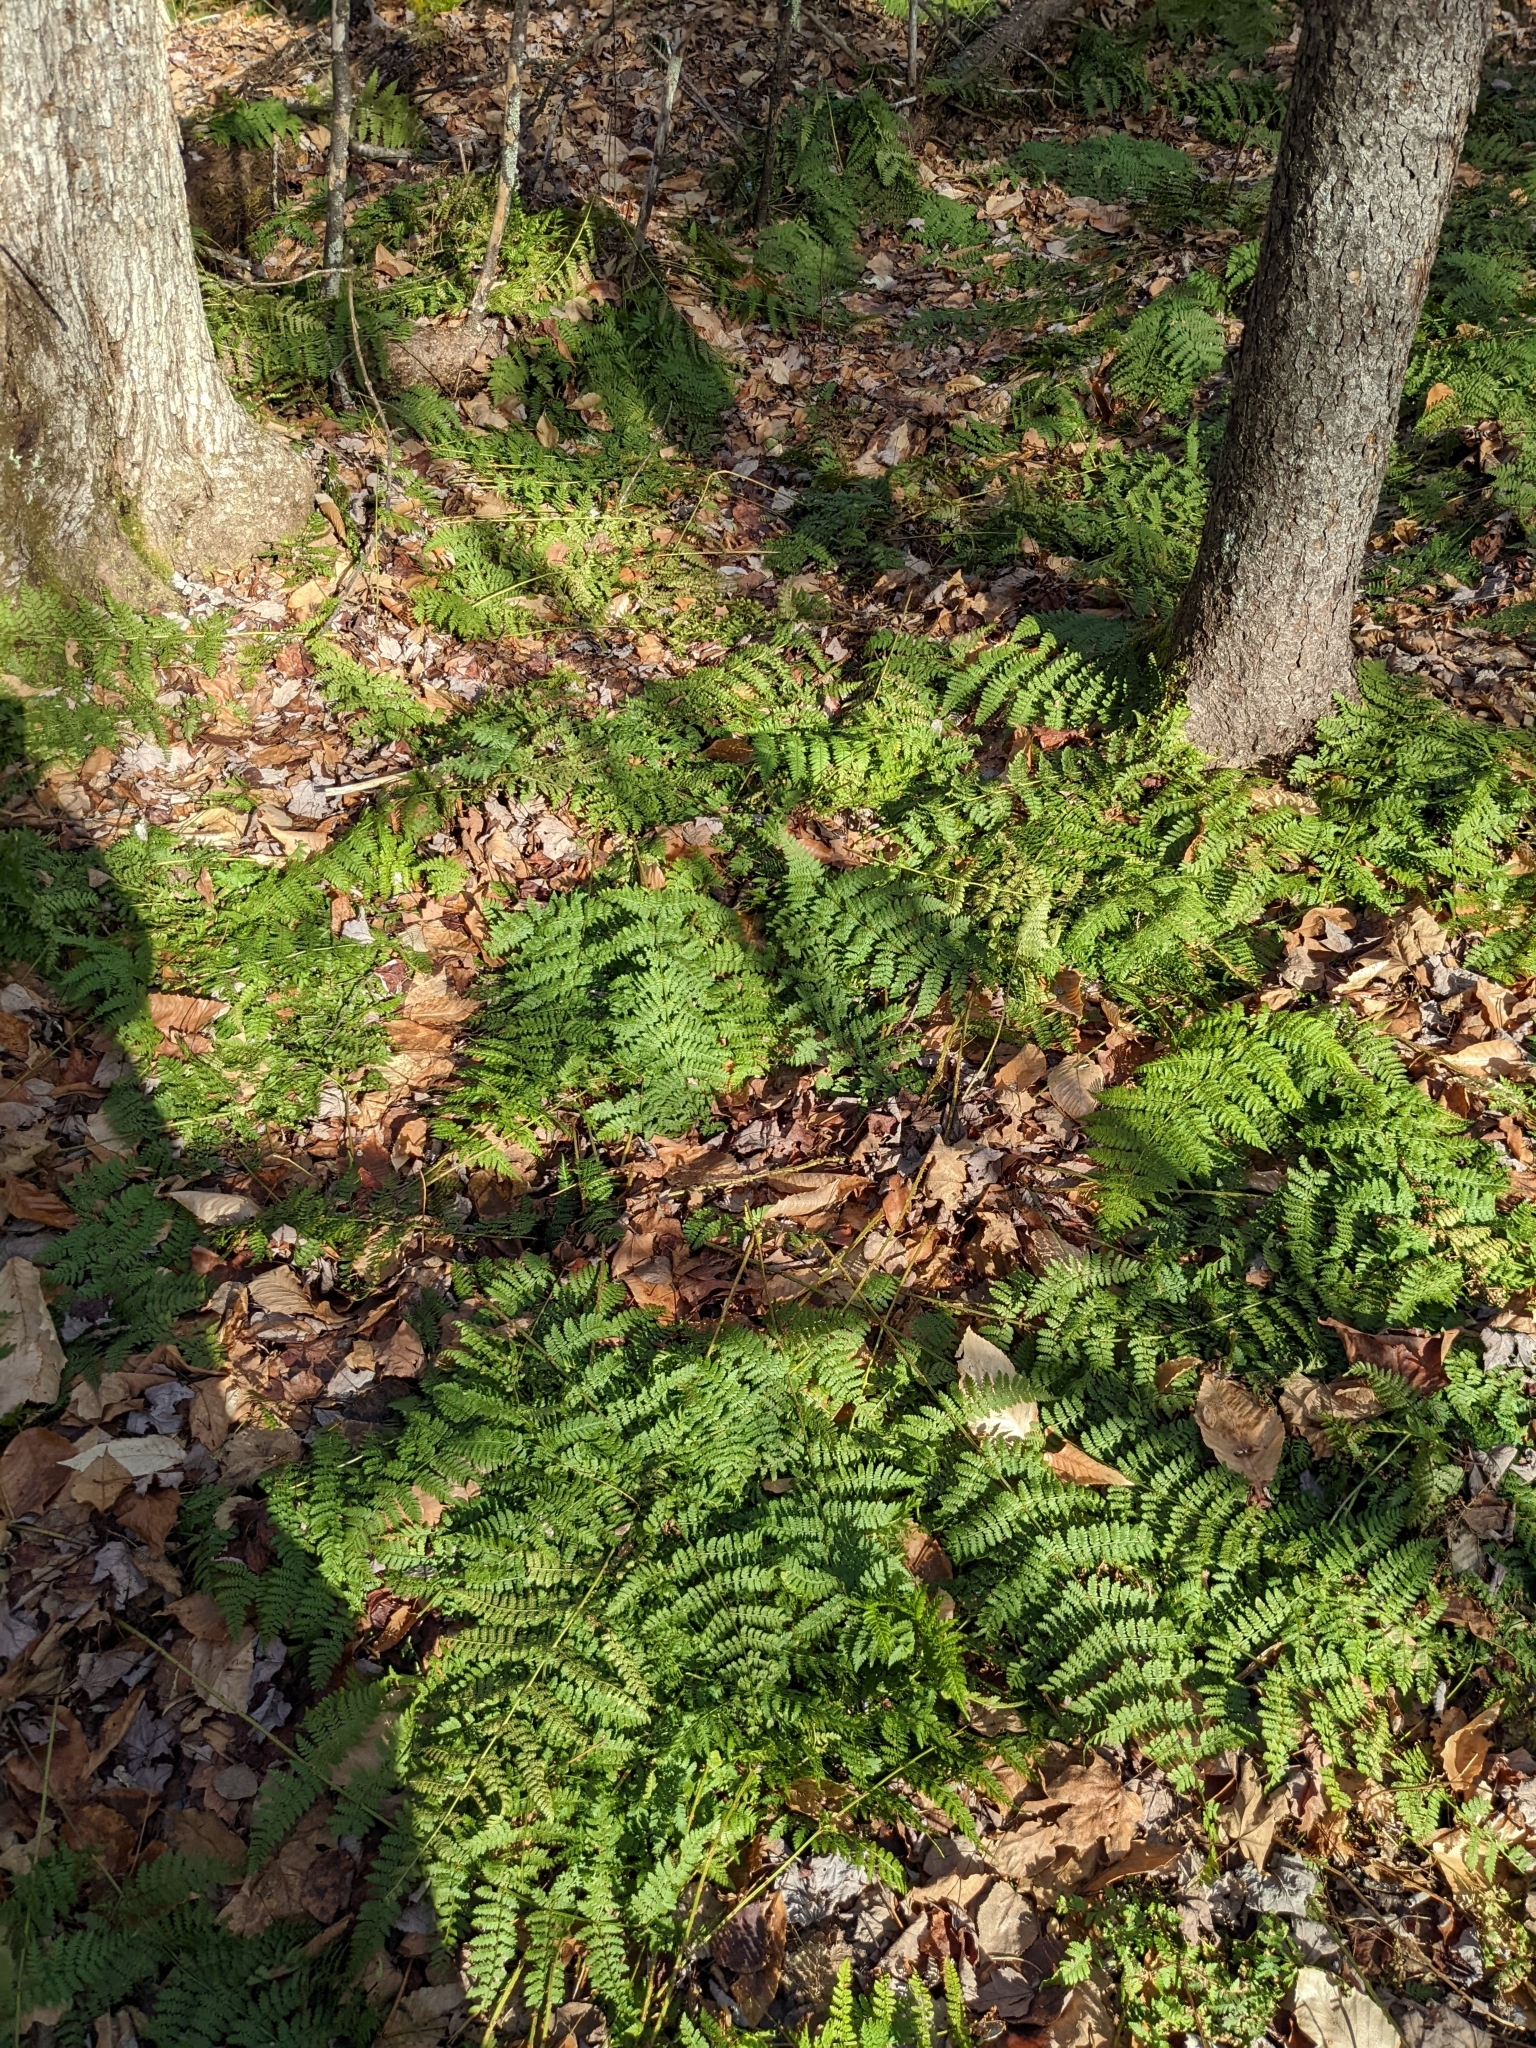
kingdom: Plantae
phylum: Tracheophyta
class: Polypodiopsida
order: Polypodiales
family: Dryopteridaceae
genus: Dryopteris
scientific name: Dryopteris intermedia
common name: Evergreen wood fern
